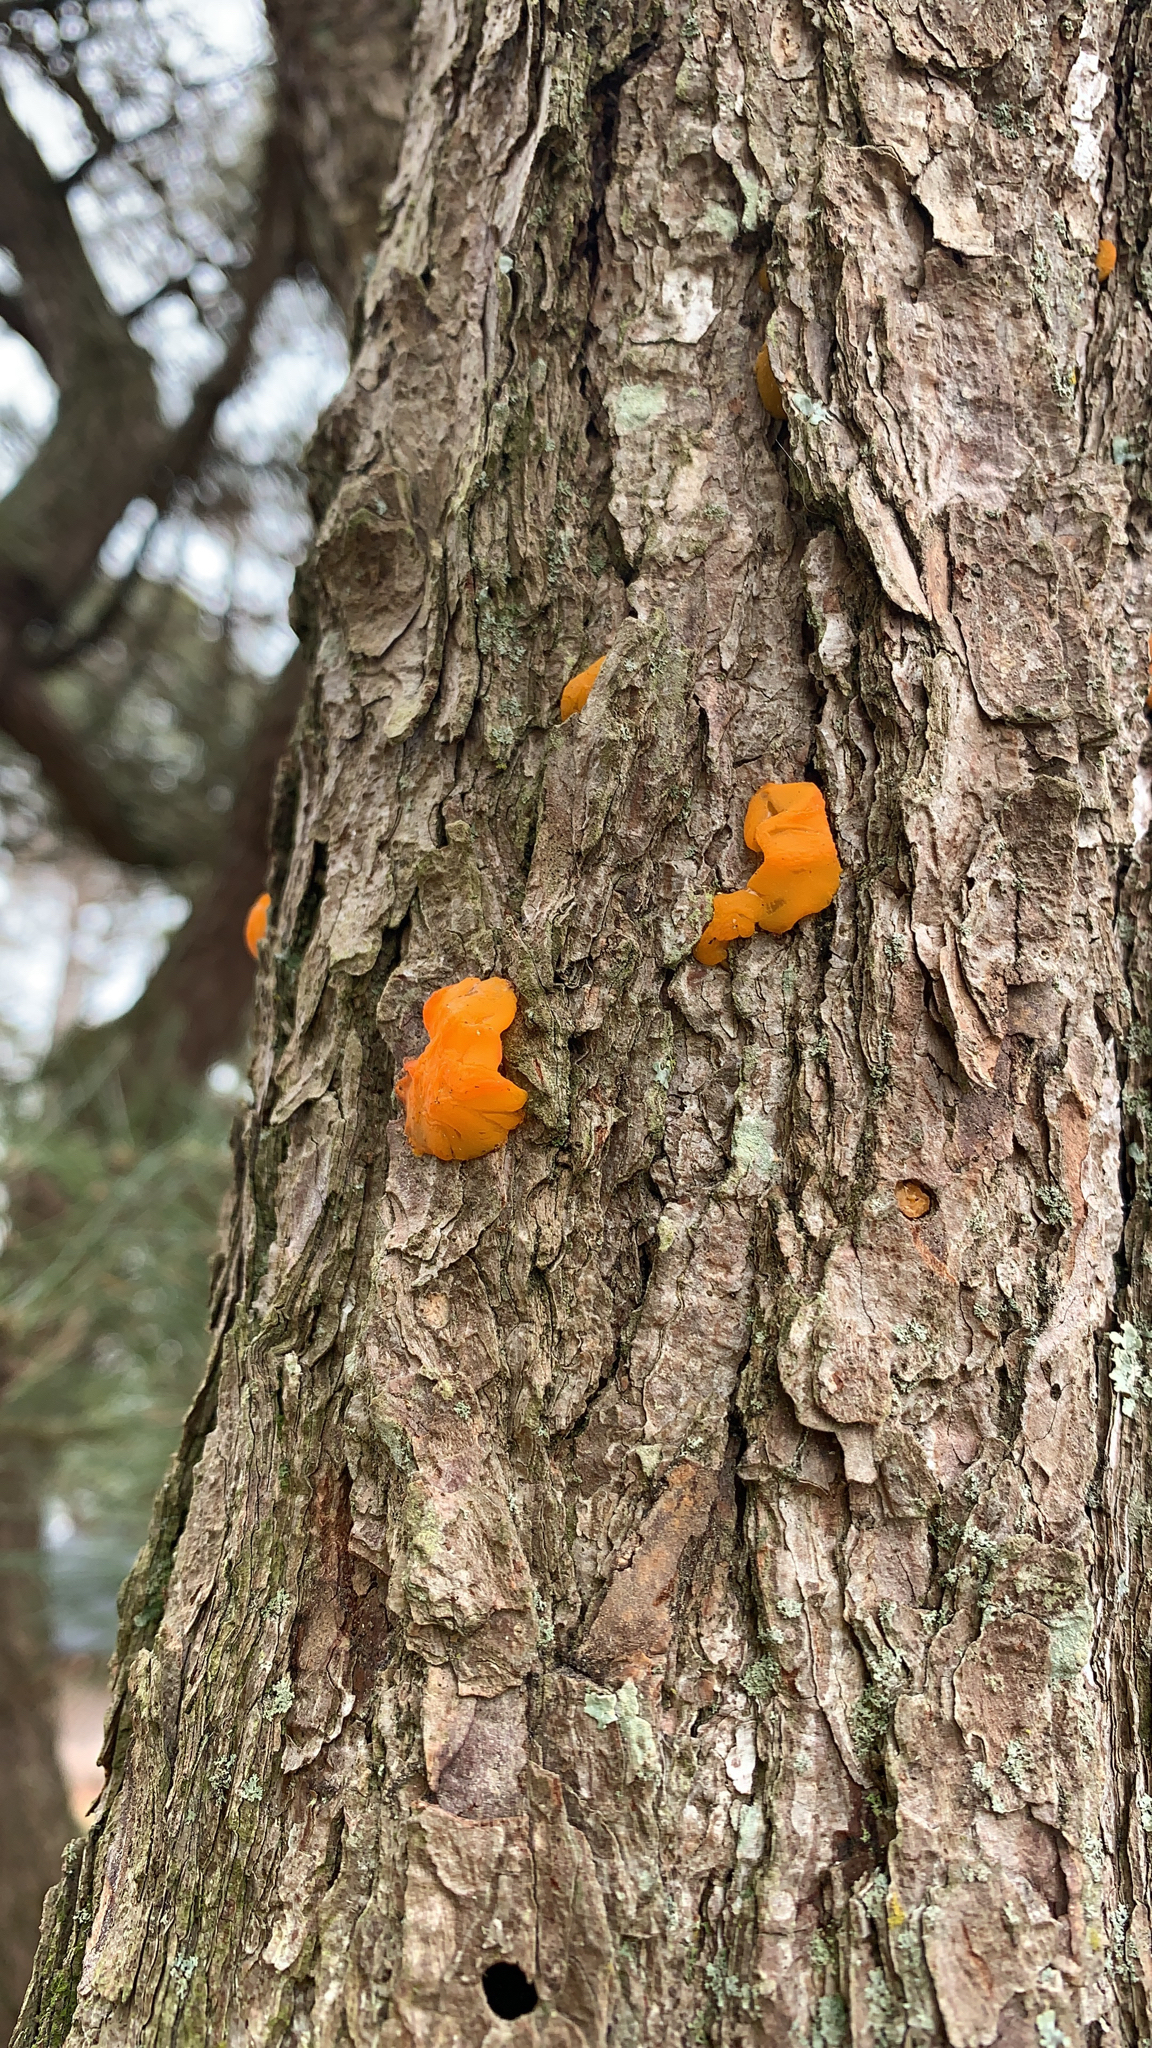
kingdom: Fungi
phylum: Basidiomycota
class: Dacrymycetes
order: Dacrymycetales
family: Dacrymycetaceae
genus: Dacrymyces
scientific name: Dacrymyces chrysospermus
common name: Orange jelly spot
